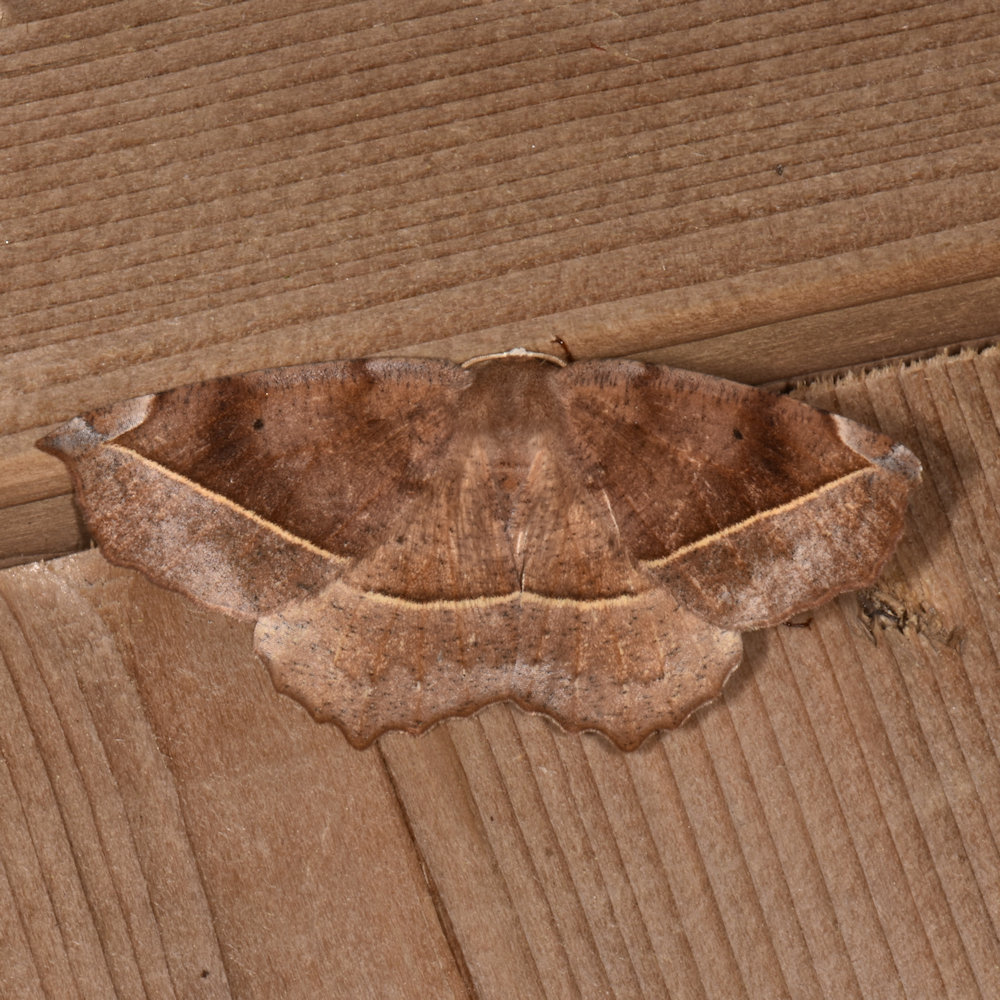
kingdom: Animalia
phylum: Arthropoda
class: Insecta
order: Lepidoptera
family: Geometridae
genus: Eutrapela
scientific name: Eutrapela clemataria
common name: Curved-toothed geometer
